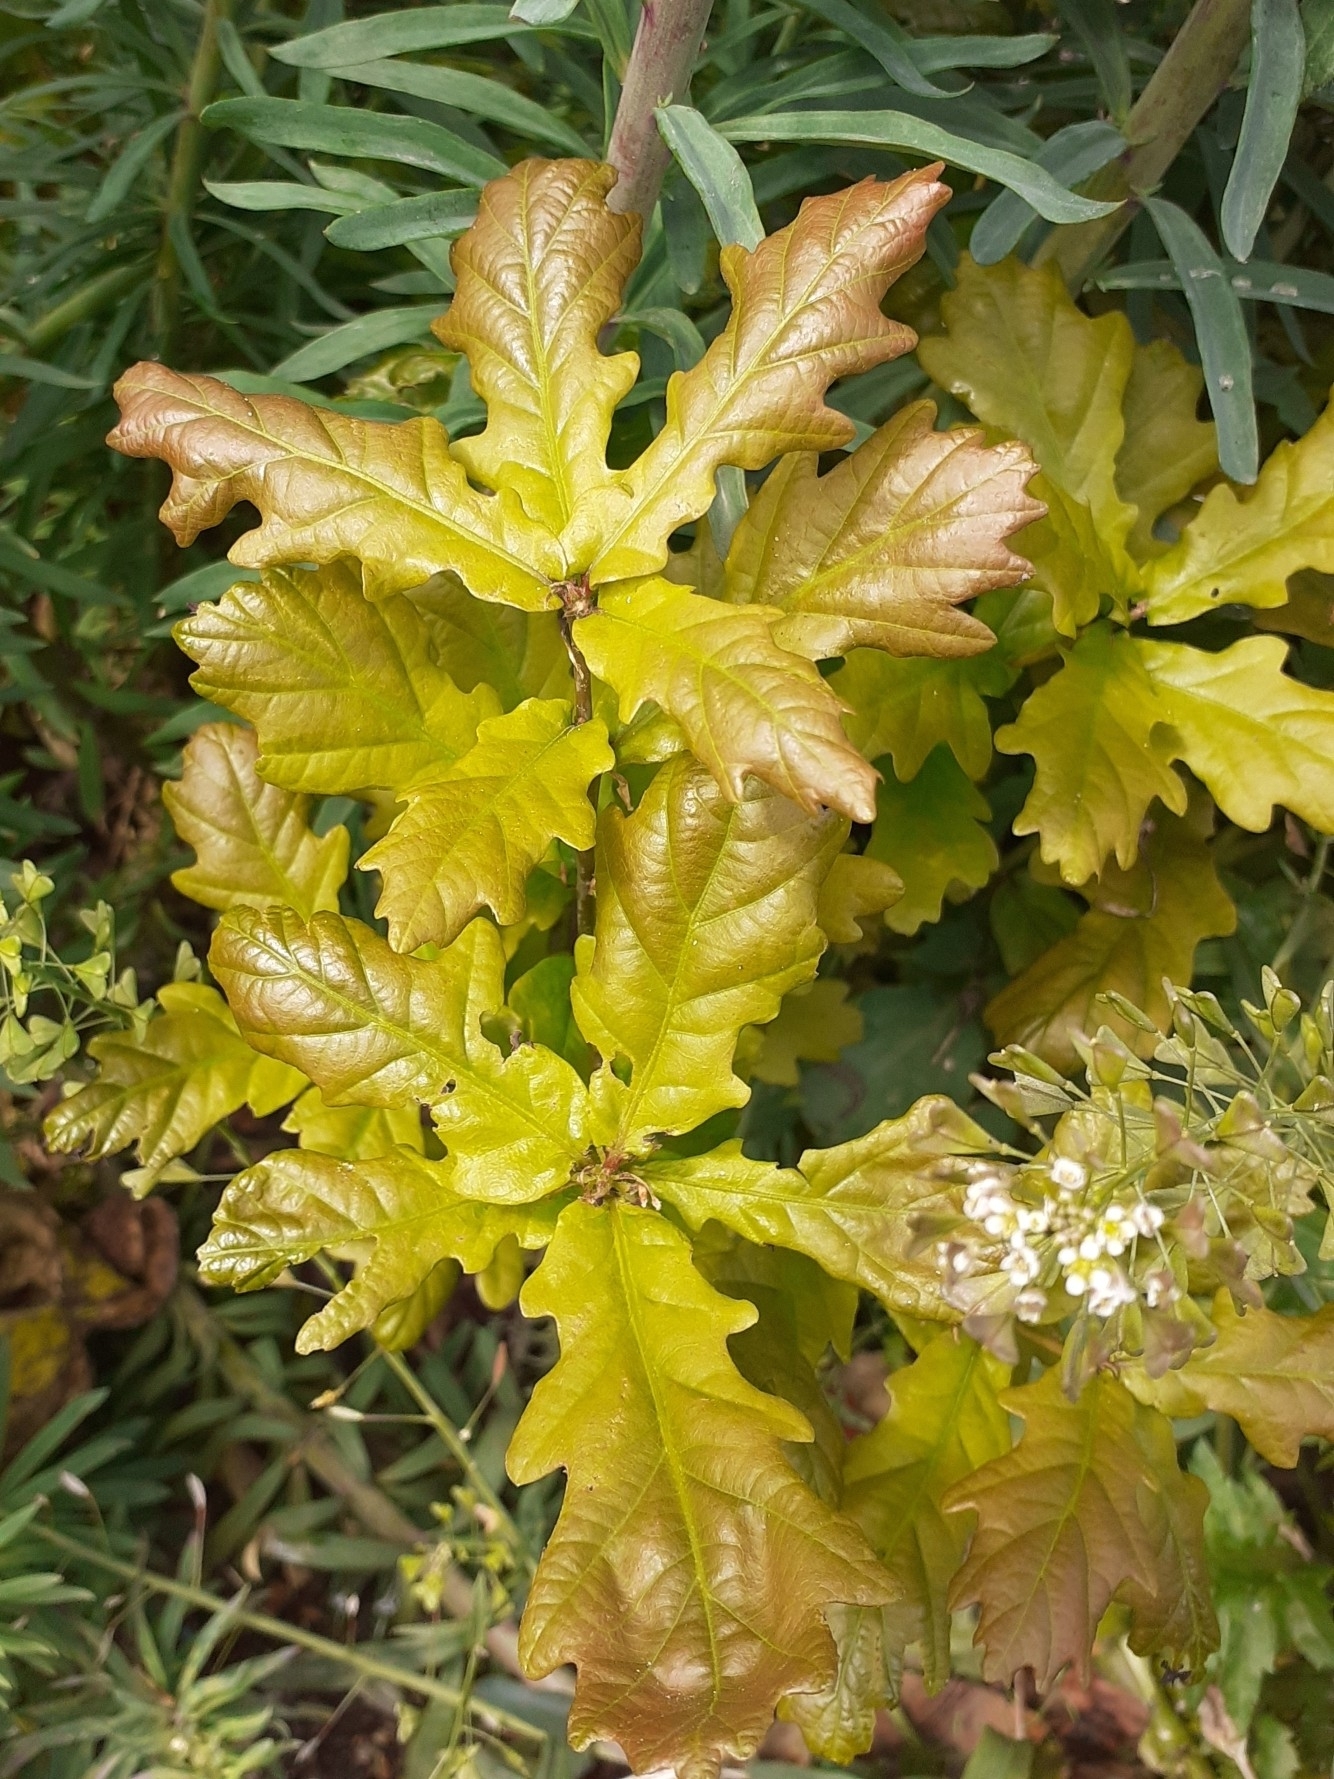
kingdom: Plantae
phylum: Tracheophyta
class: Magnoliopsida
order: Fagales
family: Fagaceae
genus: Quercus
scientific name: Quercus robur
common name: Pedunculate oak
